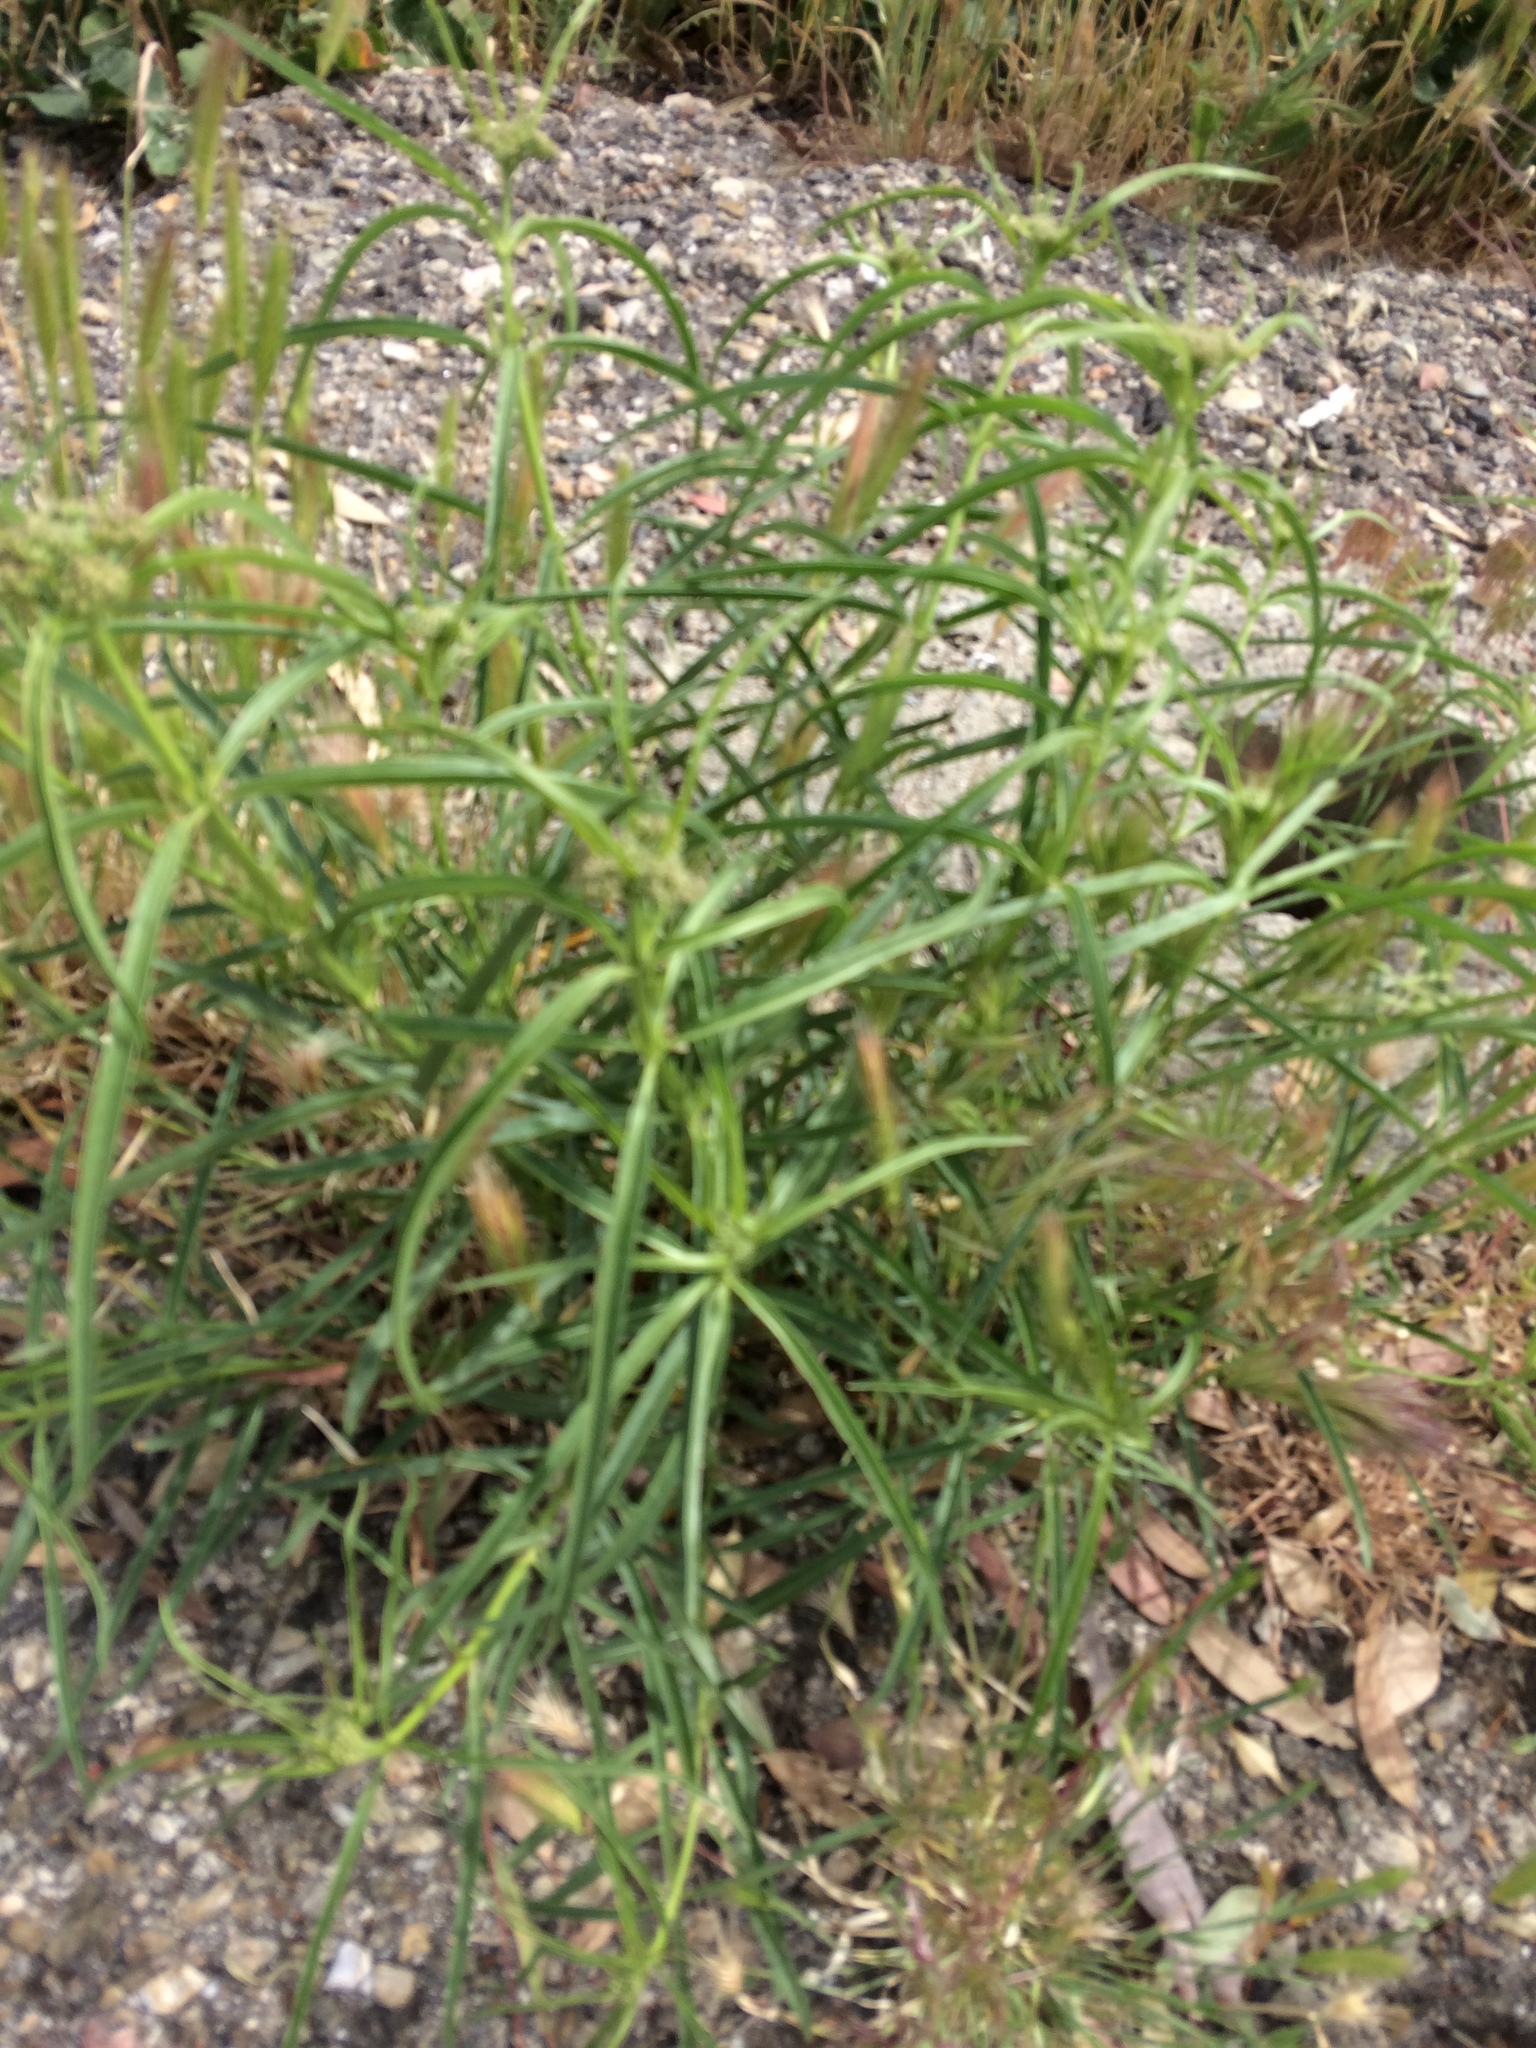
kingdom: Plantae
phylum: Tracheophyta
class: Magnoliopsida
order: Gentianales
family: Apocynaceae
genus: Asclepias
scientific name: Asclepias fascicularis
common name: Mexican milkweed
